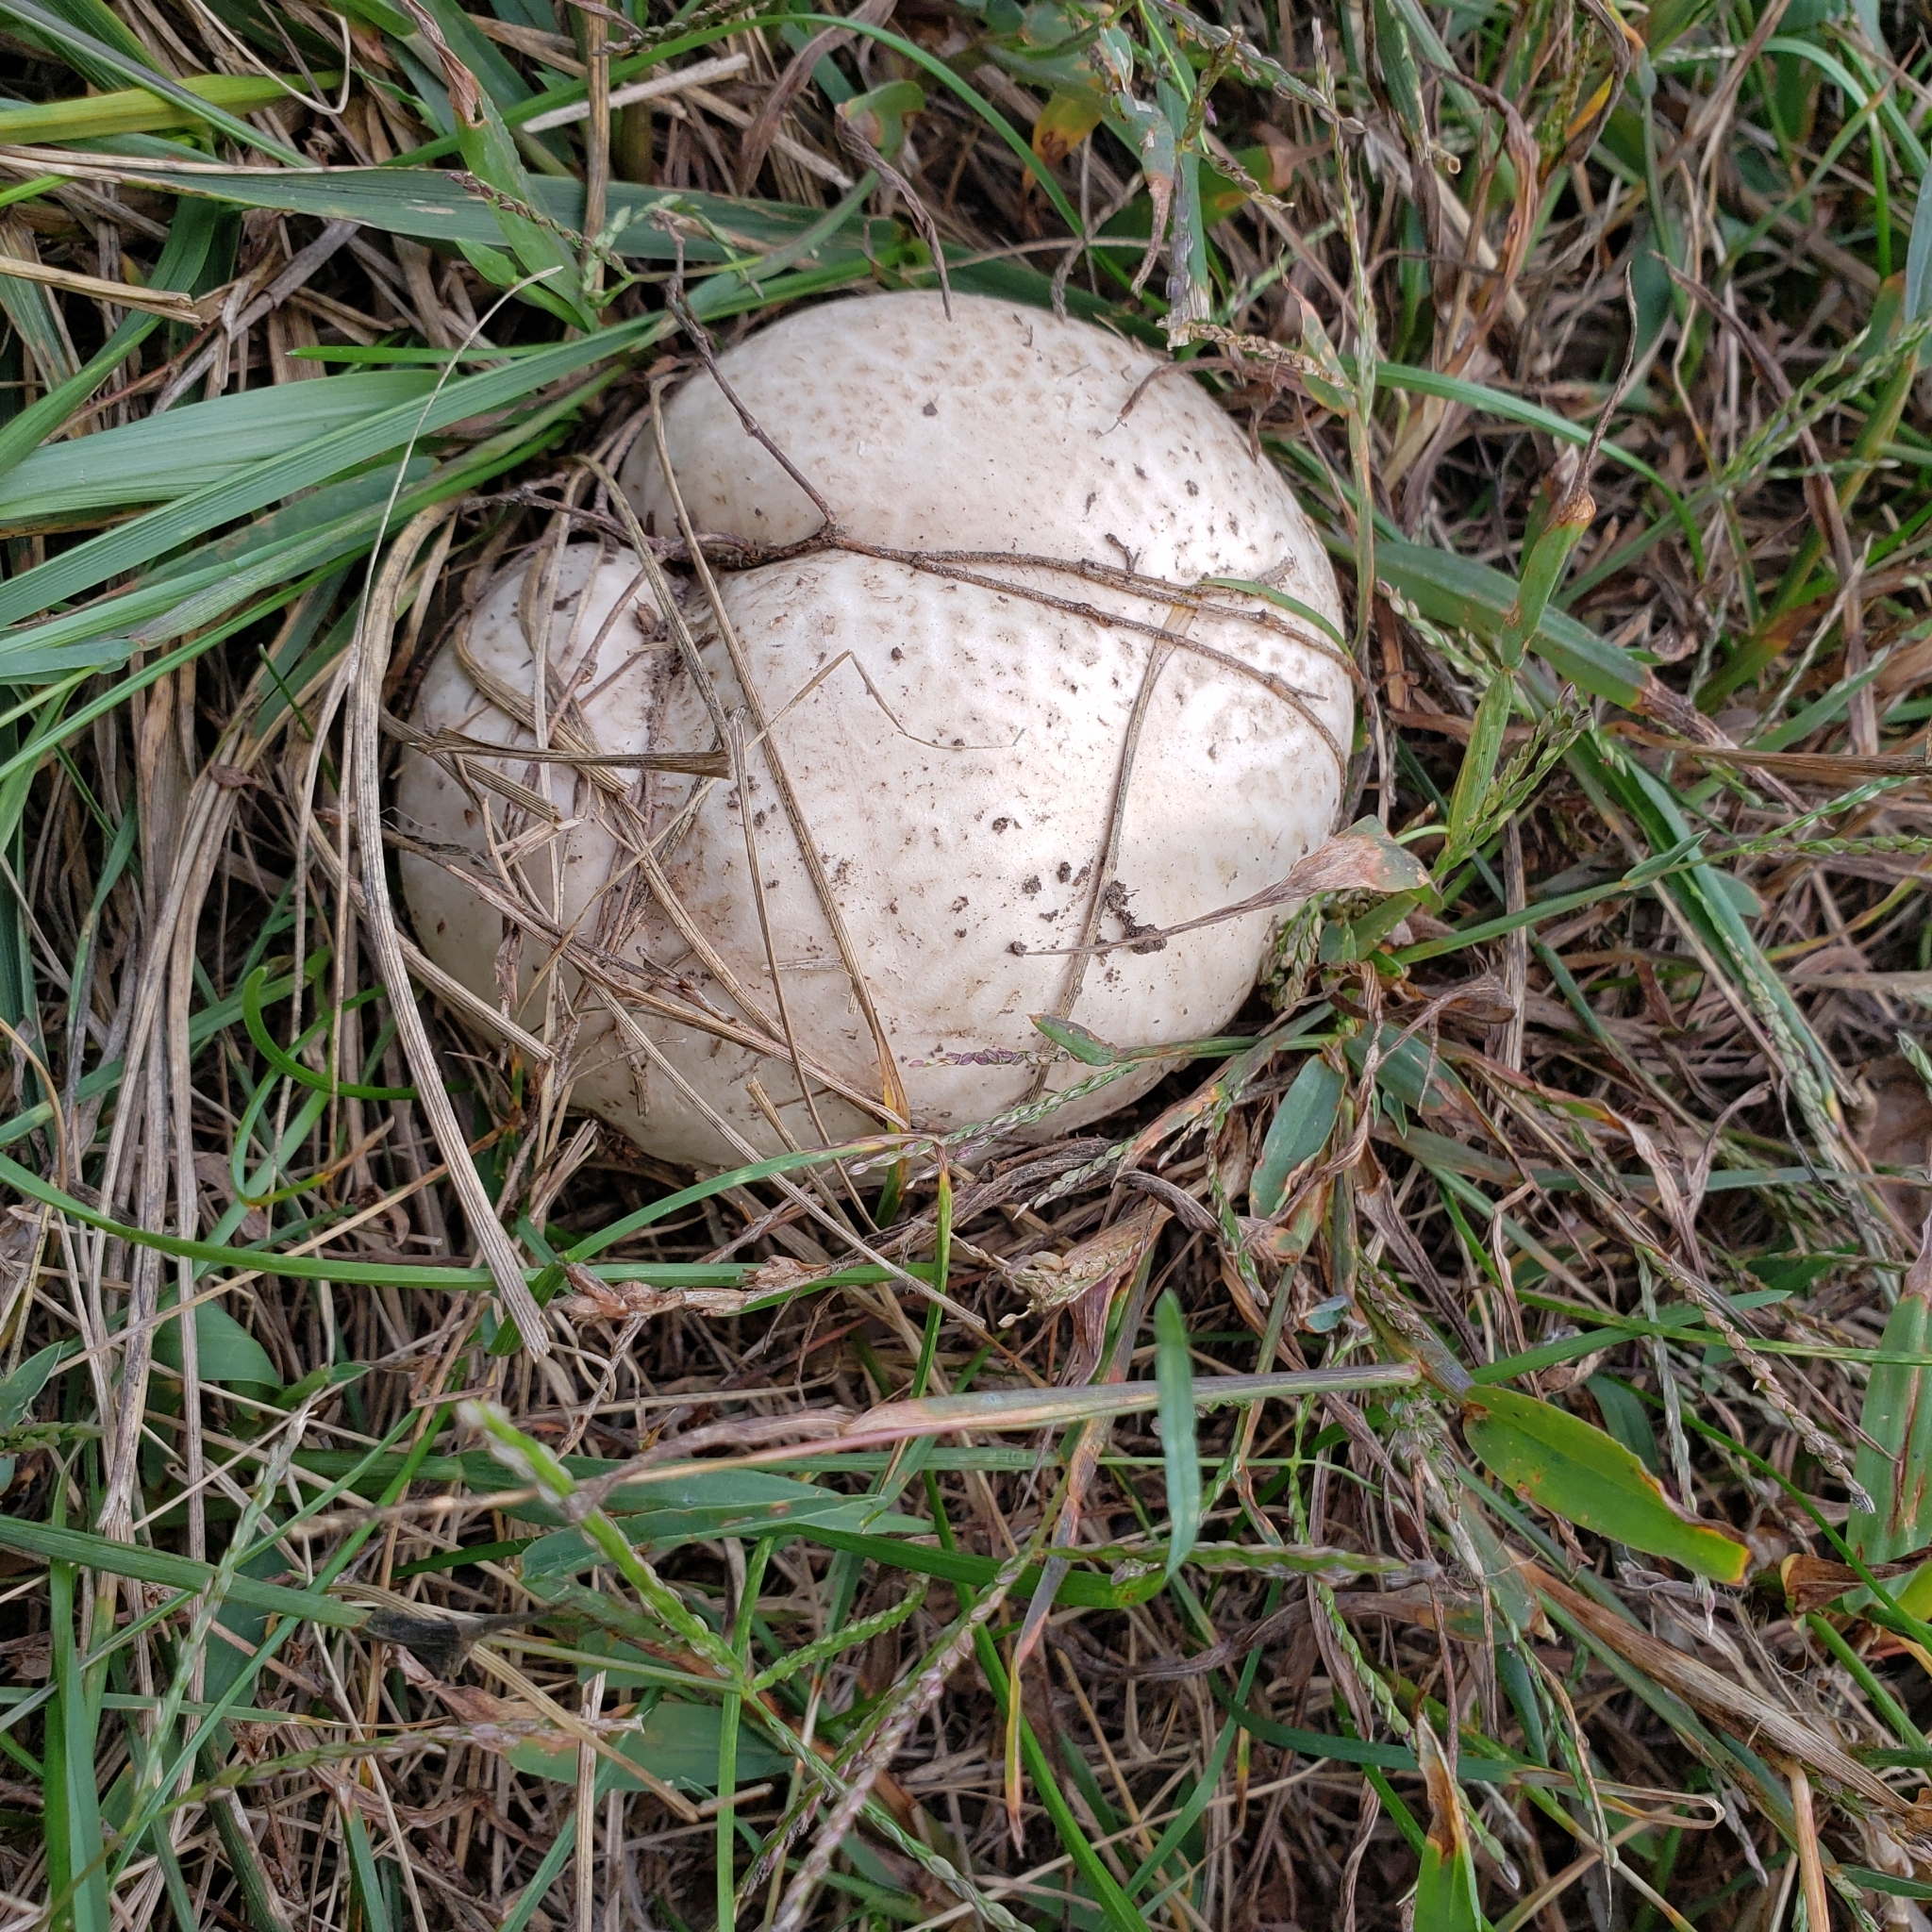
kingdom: Fungi
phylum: Basidiomycota
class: Agaricomycetes
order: Agaricales
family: Lycoperdaceae
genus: Calvatia
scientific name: Calvatia cyathiformis
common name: Purple-spored puffball
